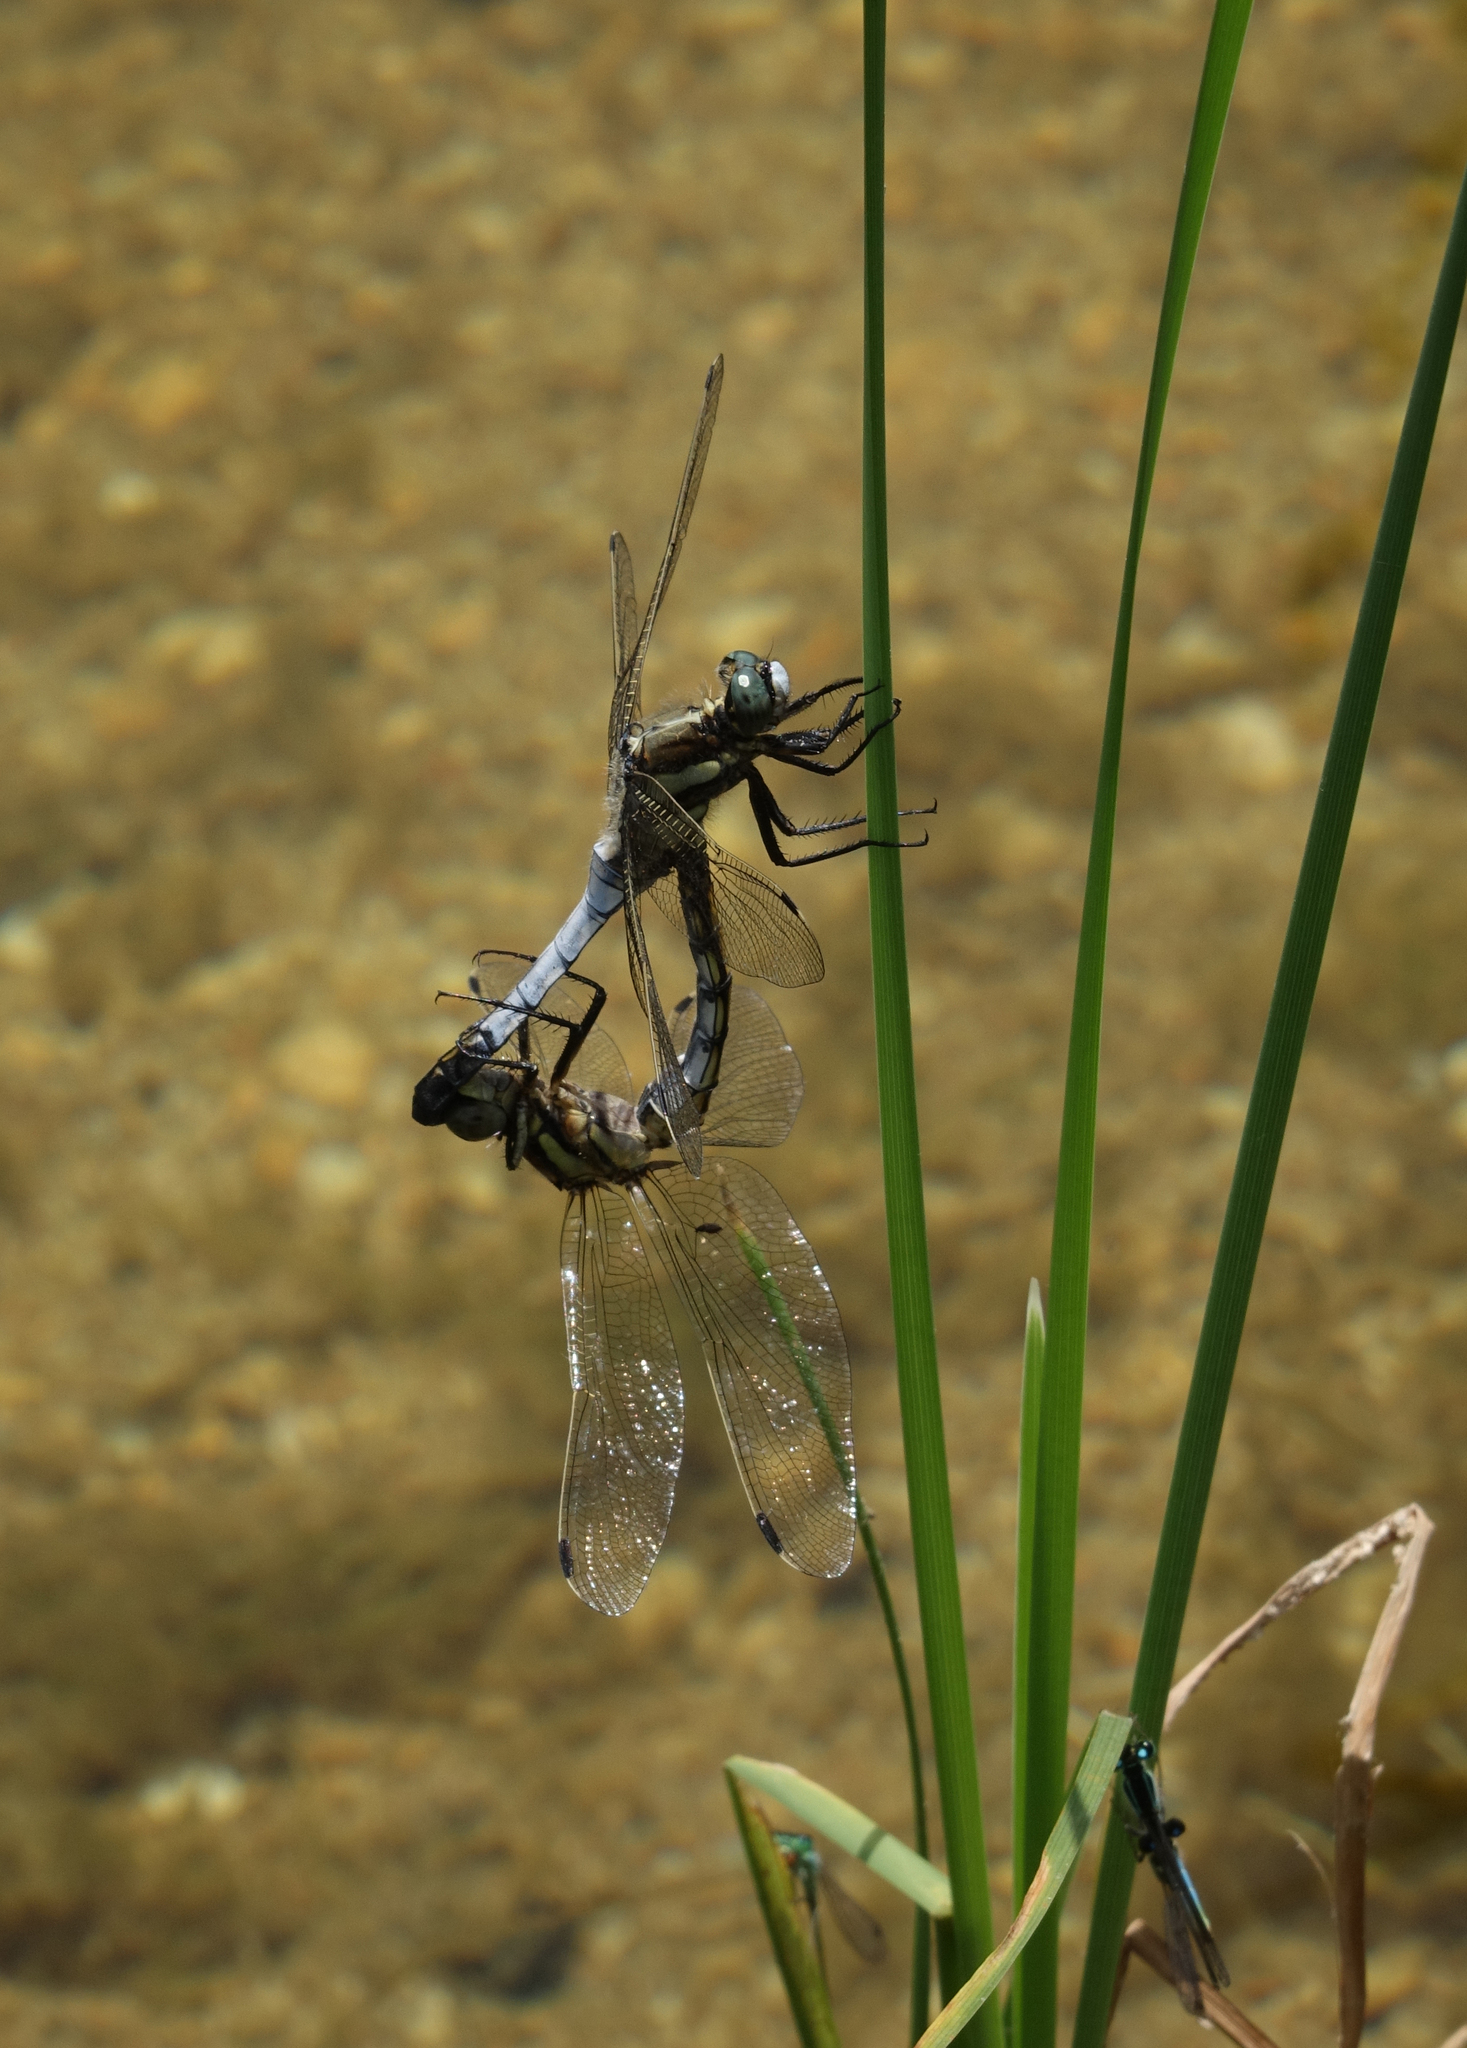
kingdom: Animalia
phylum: Arthropoda
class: Insecta
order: Odonata
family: Libellulidae
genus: Orthetrum
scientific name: Orthetrum albistylum
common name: White-tailed skimmer
